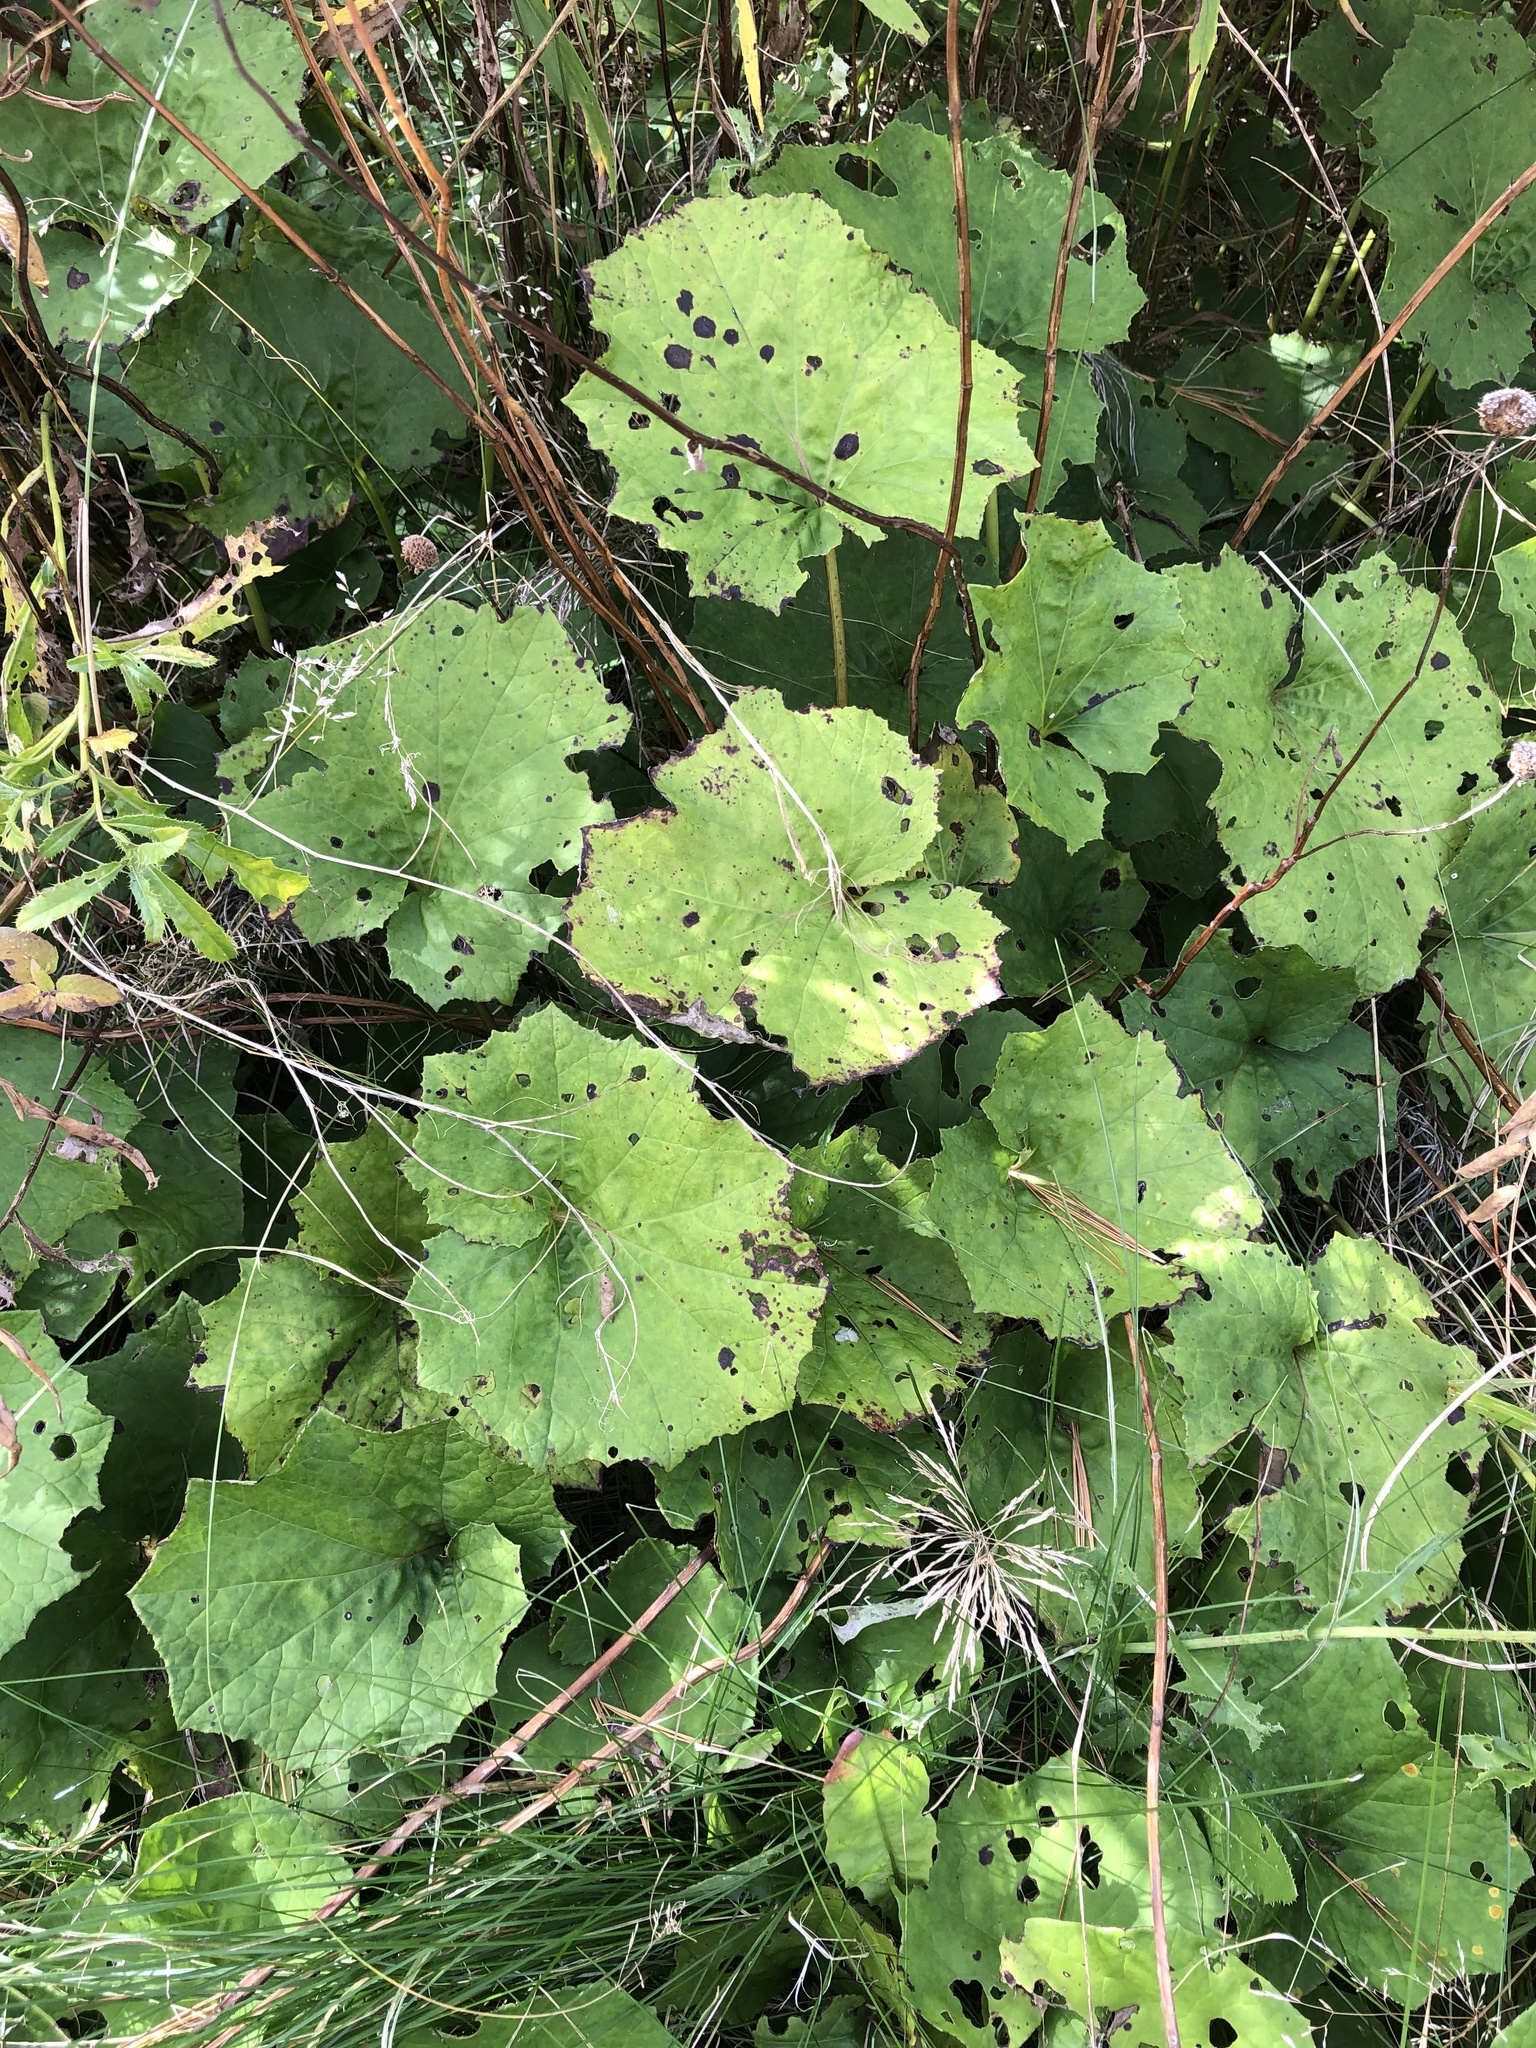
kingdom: Plantae
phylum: Tracheophyta
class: Magnoliopsida
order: Asterales
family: Asteraceae
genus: Tussilago
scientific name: Tussilago farfara
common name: Coltsfoot
